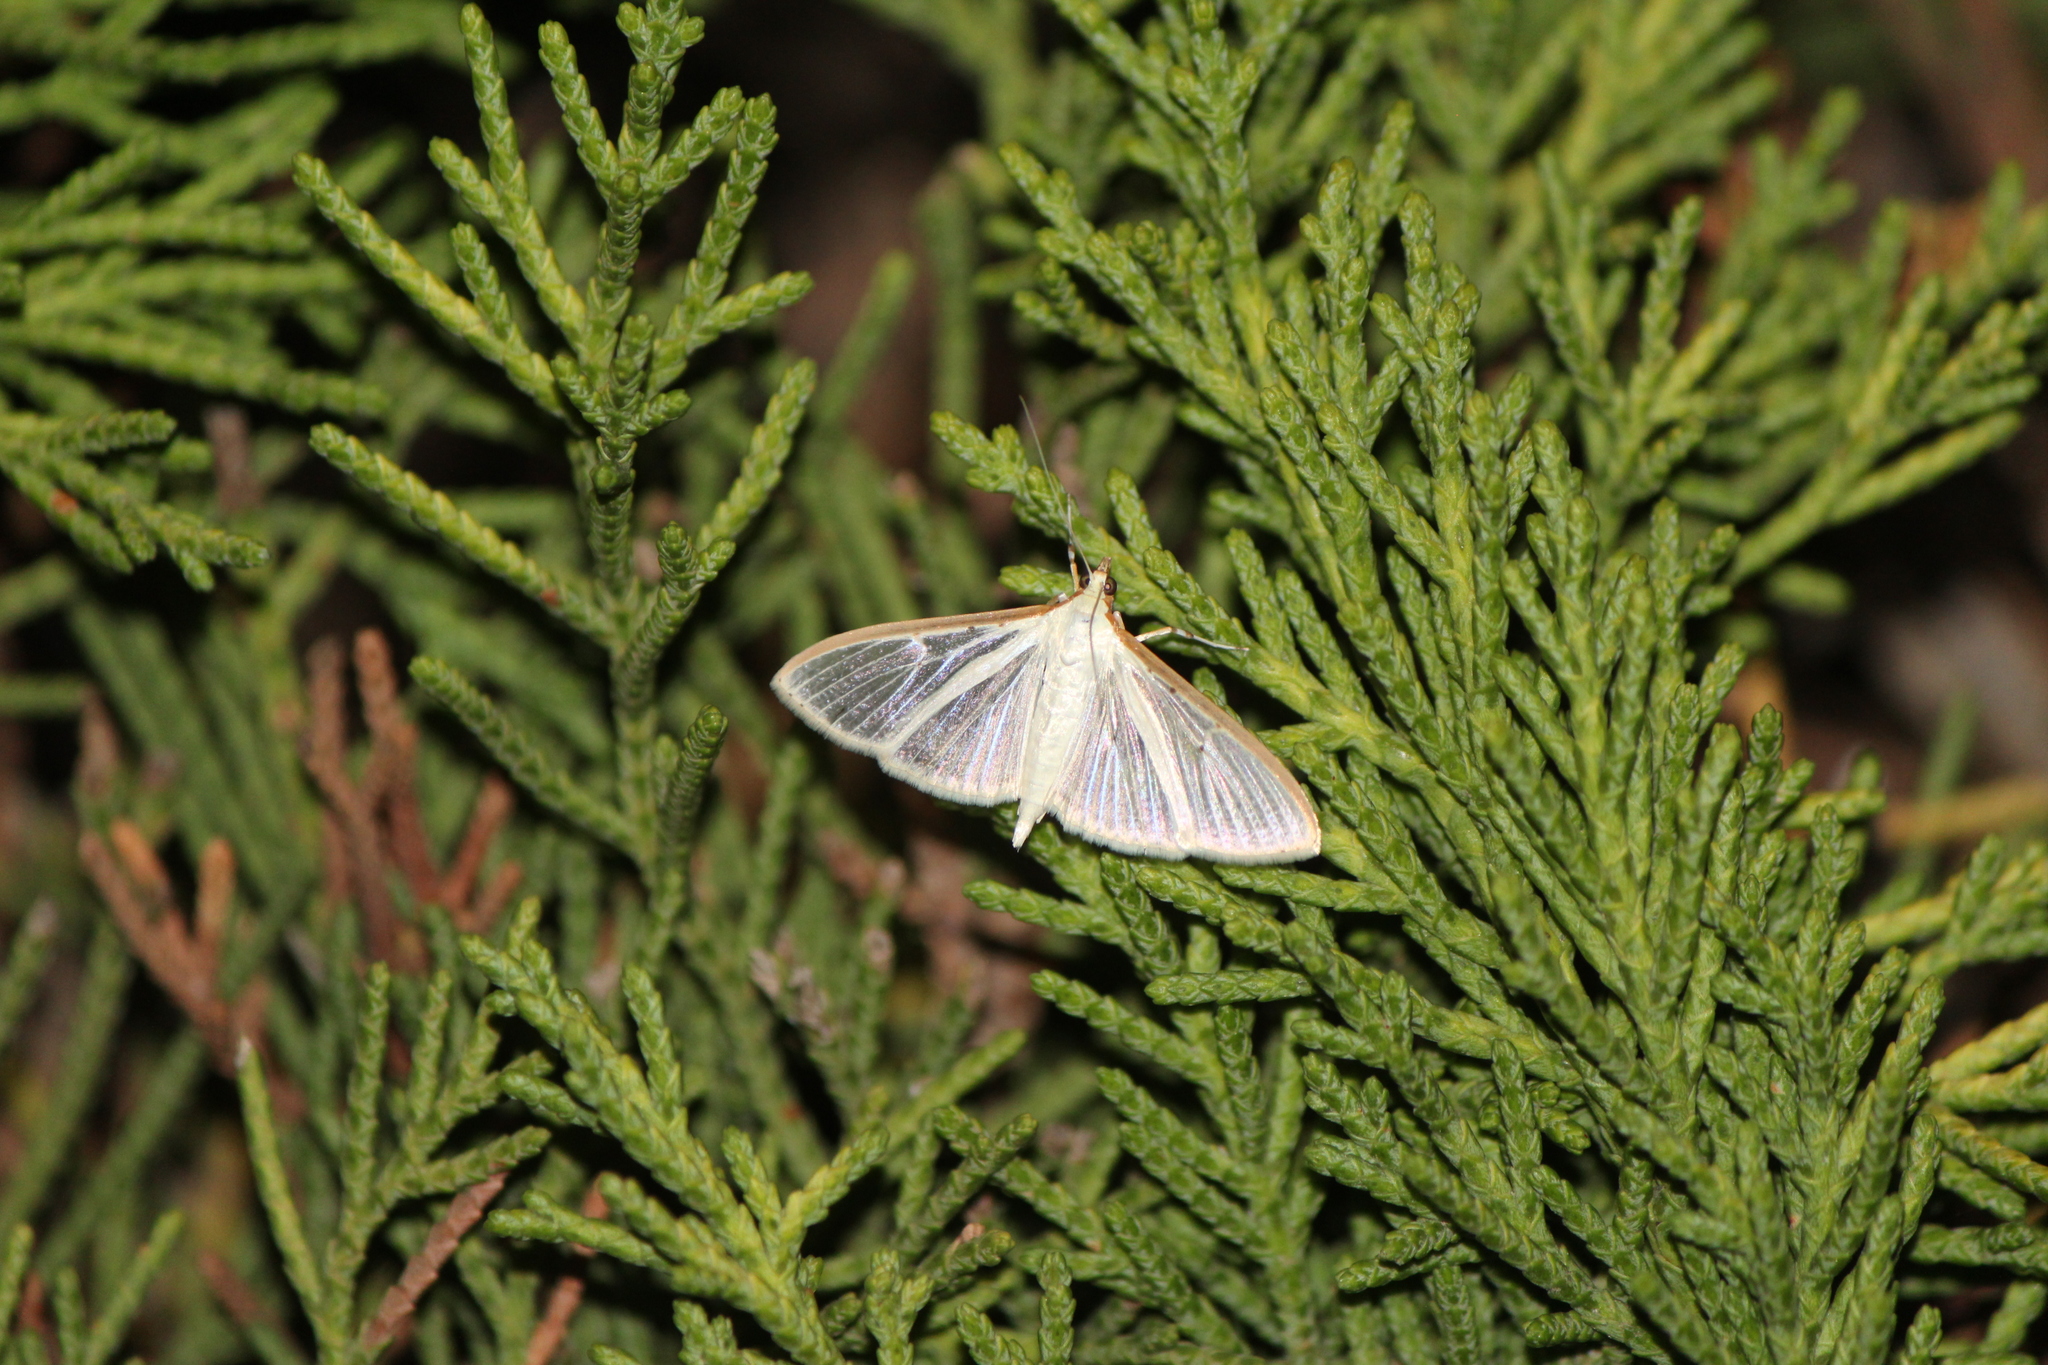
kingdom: Animalia
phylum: Arthropoda
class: Insecta
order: Lepidoptera
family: Crambidae
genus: Palpita
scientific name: Palpita quadristigmalis
